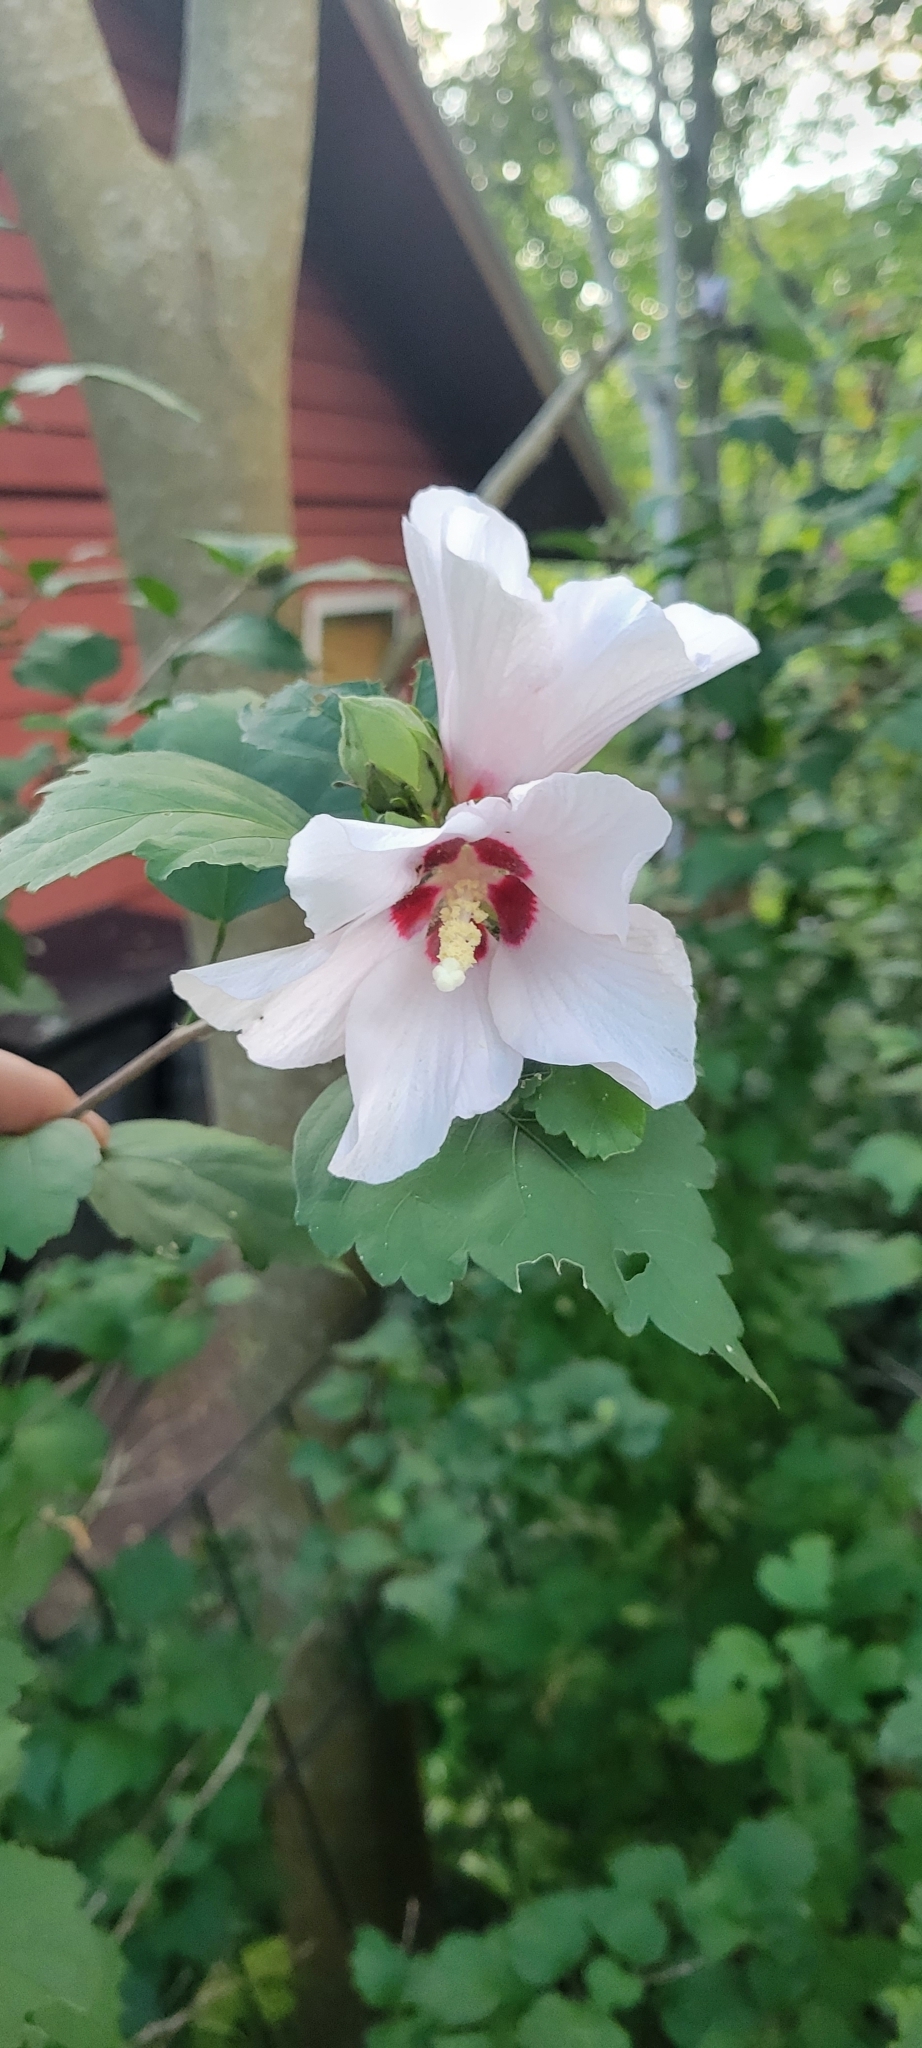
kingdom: Plantae
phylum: Tracheophyta
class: Magnoliopsida
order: Malvales
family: Malvaceae
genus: Hibiscus
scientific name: Hibiscus syriacus
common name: Syrian ketmia
